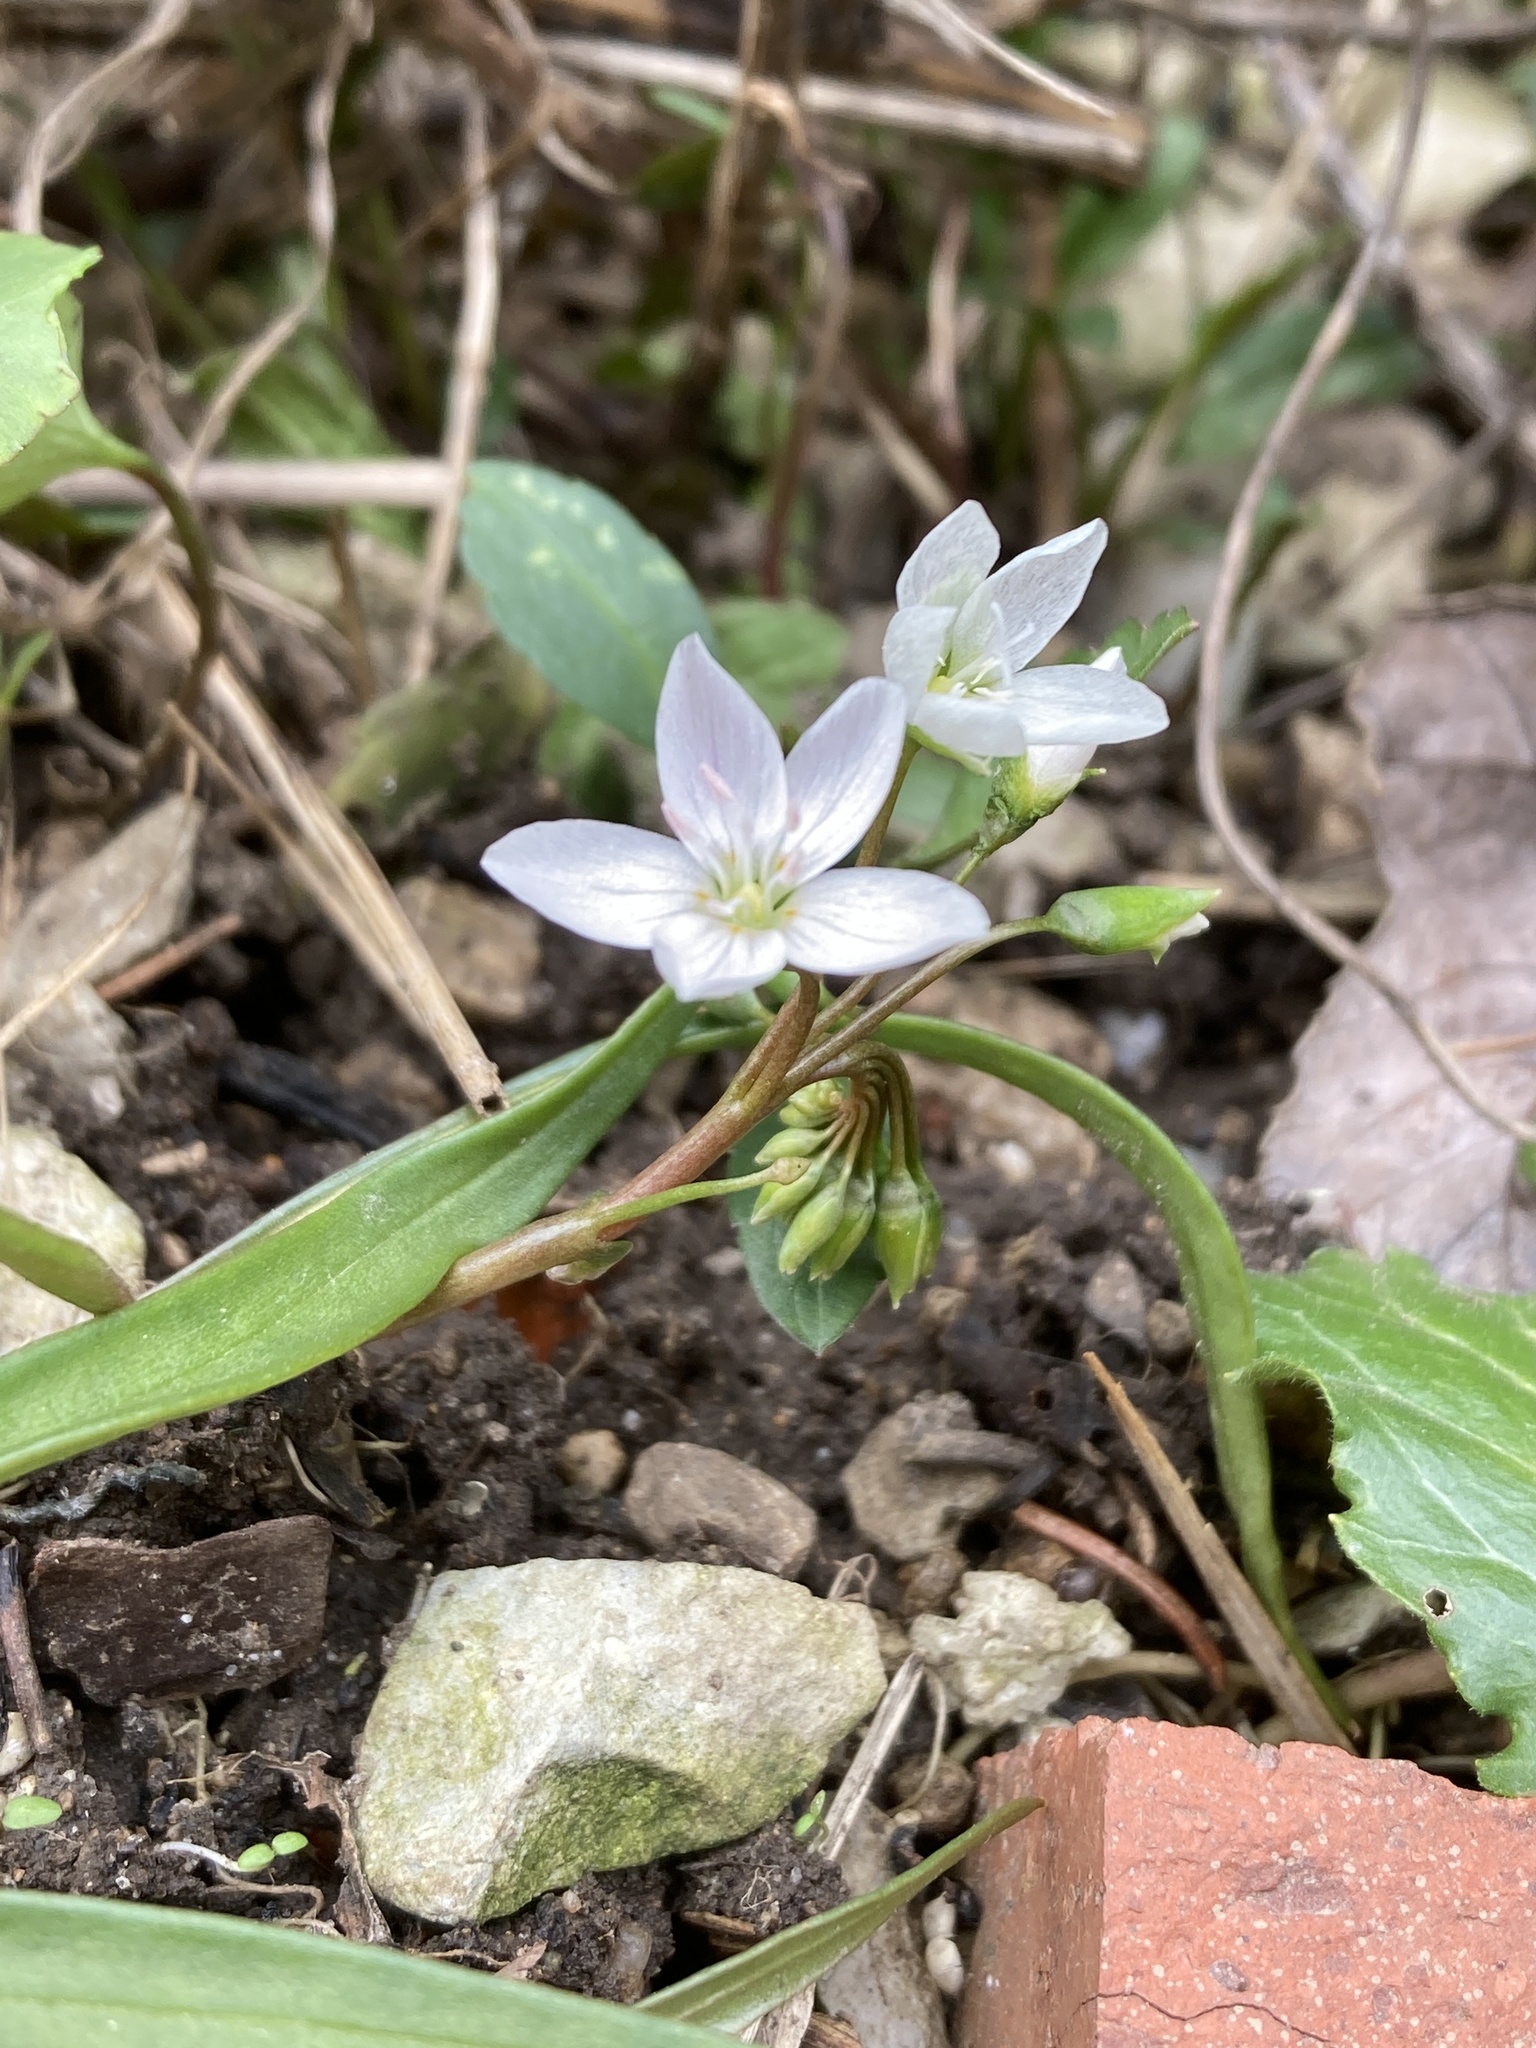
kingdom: Plantae
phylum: Tracheophyta
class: Magnoliopsida
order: Caryophyllales
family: Montiaceae
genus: Claytonia
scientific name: Claytonia virginica
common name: Virginia springbeauty
